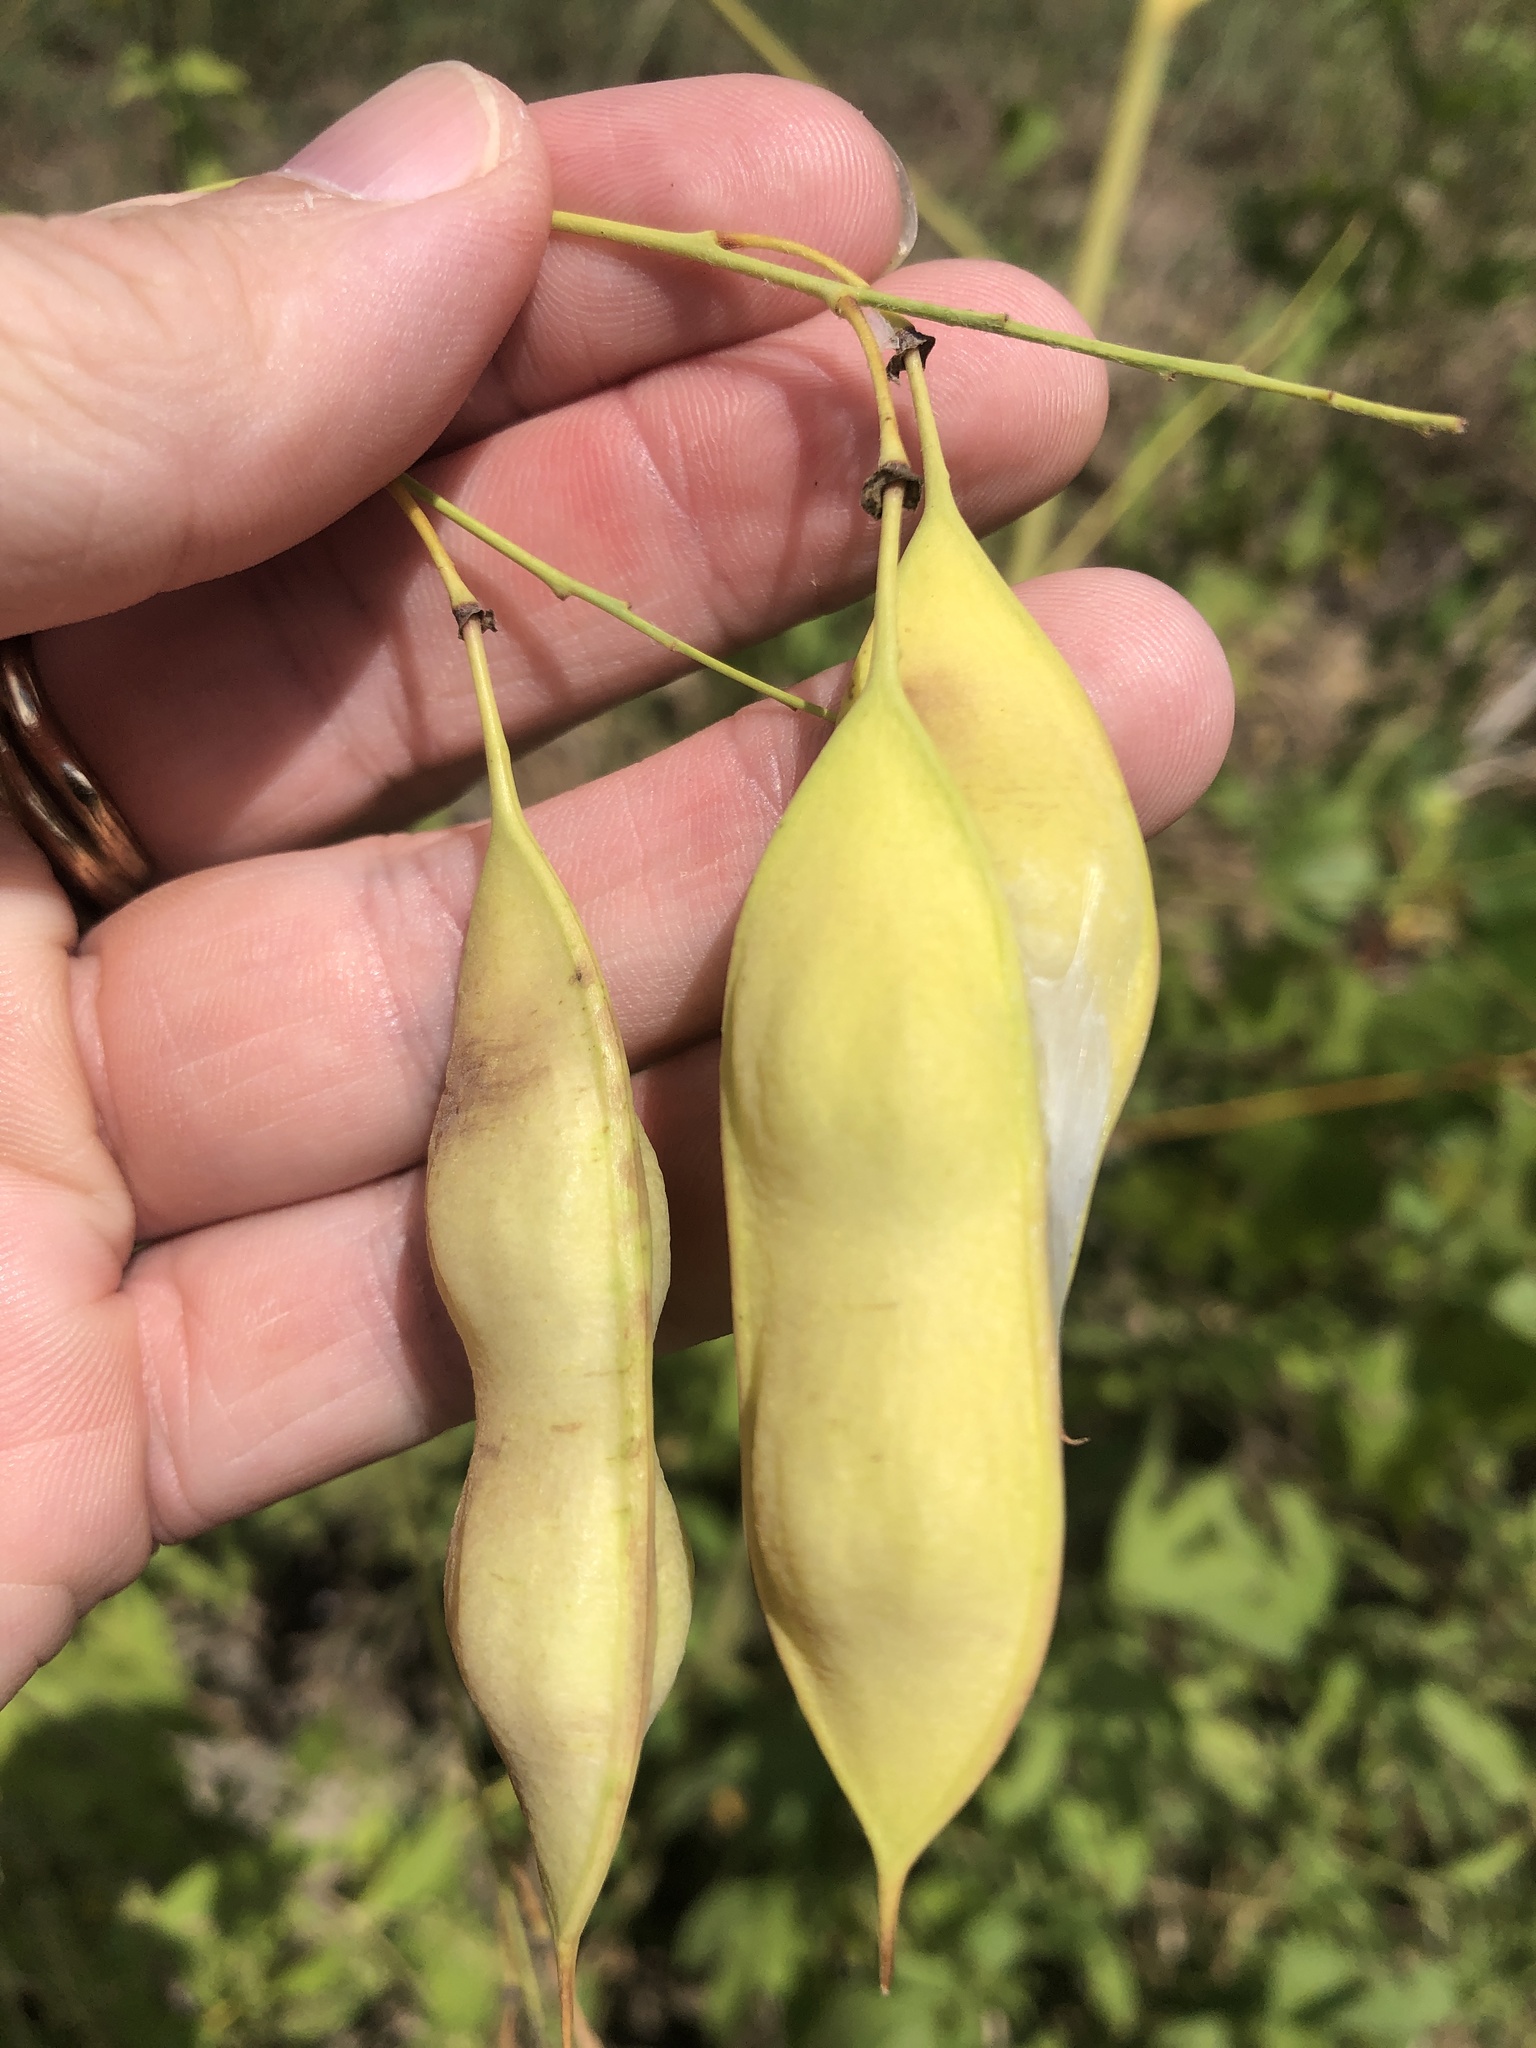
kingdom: Plantae
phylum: Tracheophyta
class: Magnoliopsida
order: Fabales
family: Fabaceae
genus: Sesbania
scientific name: Sesbania vesicaria
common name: Bagpod
